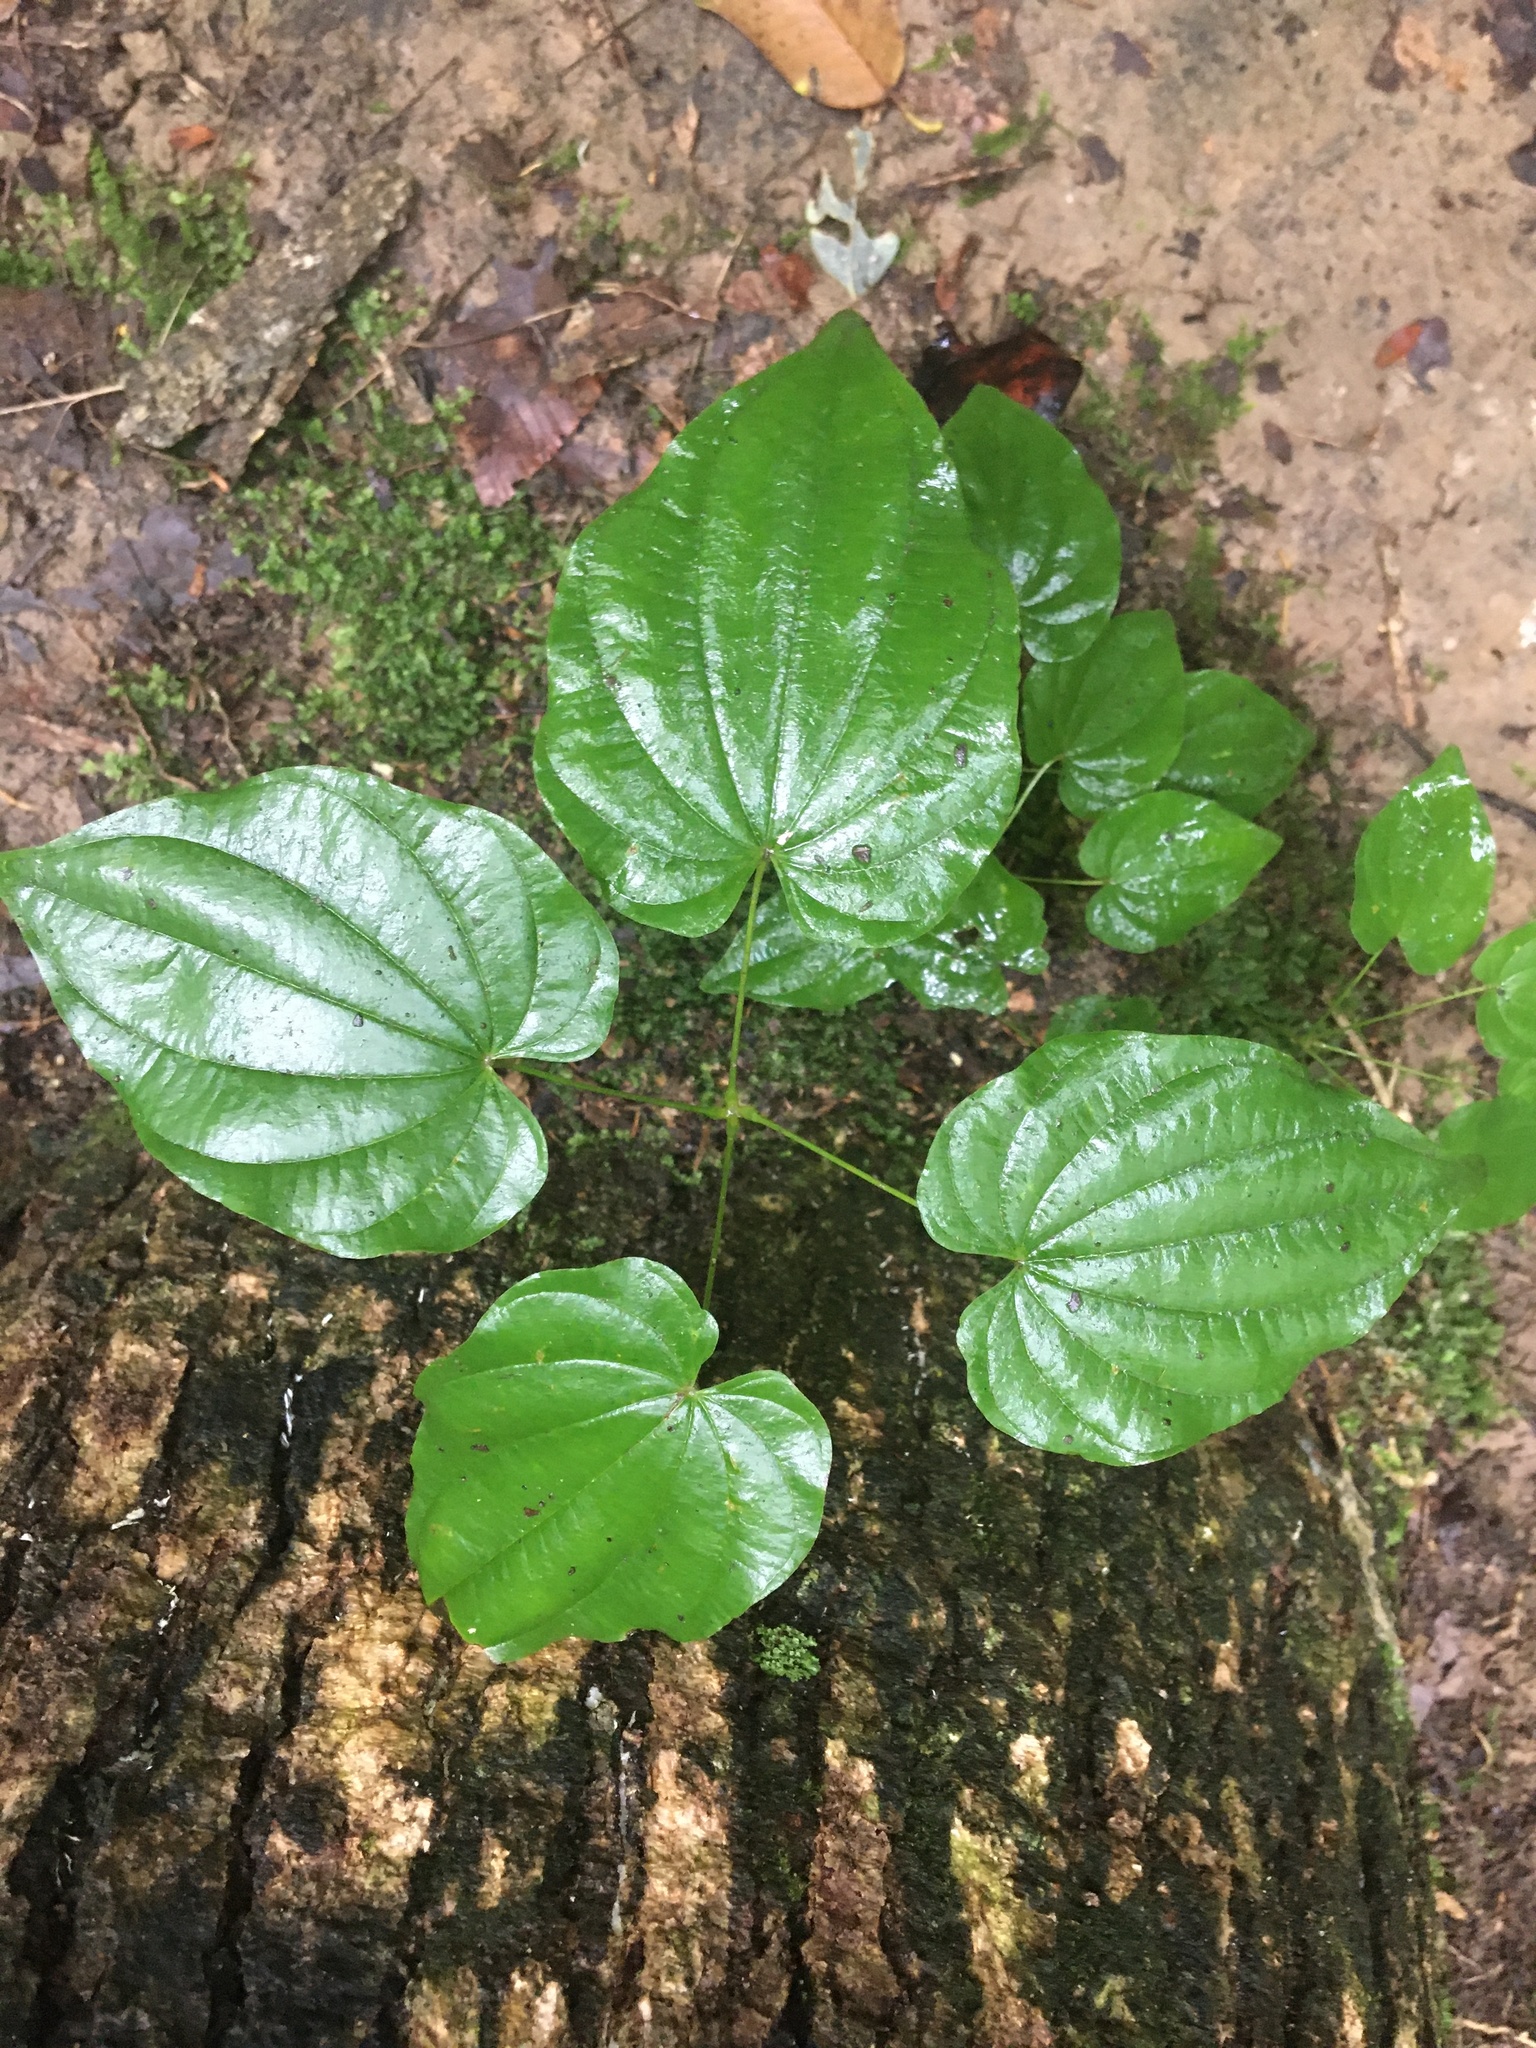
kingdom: Plantae
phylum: Tracheophyta
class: Liliopsida
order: Dioscoreales
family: Dioscoreaceae
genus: Dioscorea
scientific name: Dioscorea villosa
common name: Wild yam
